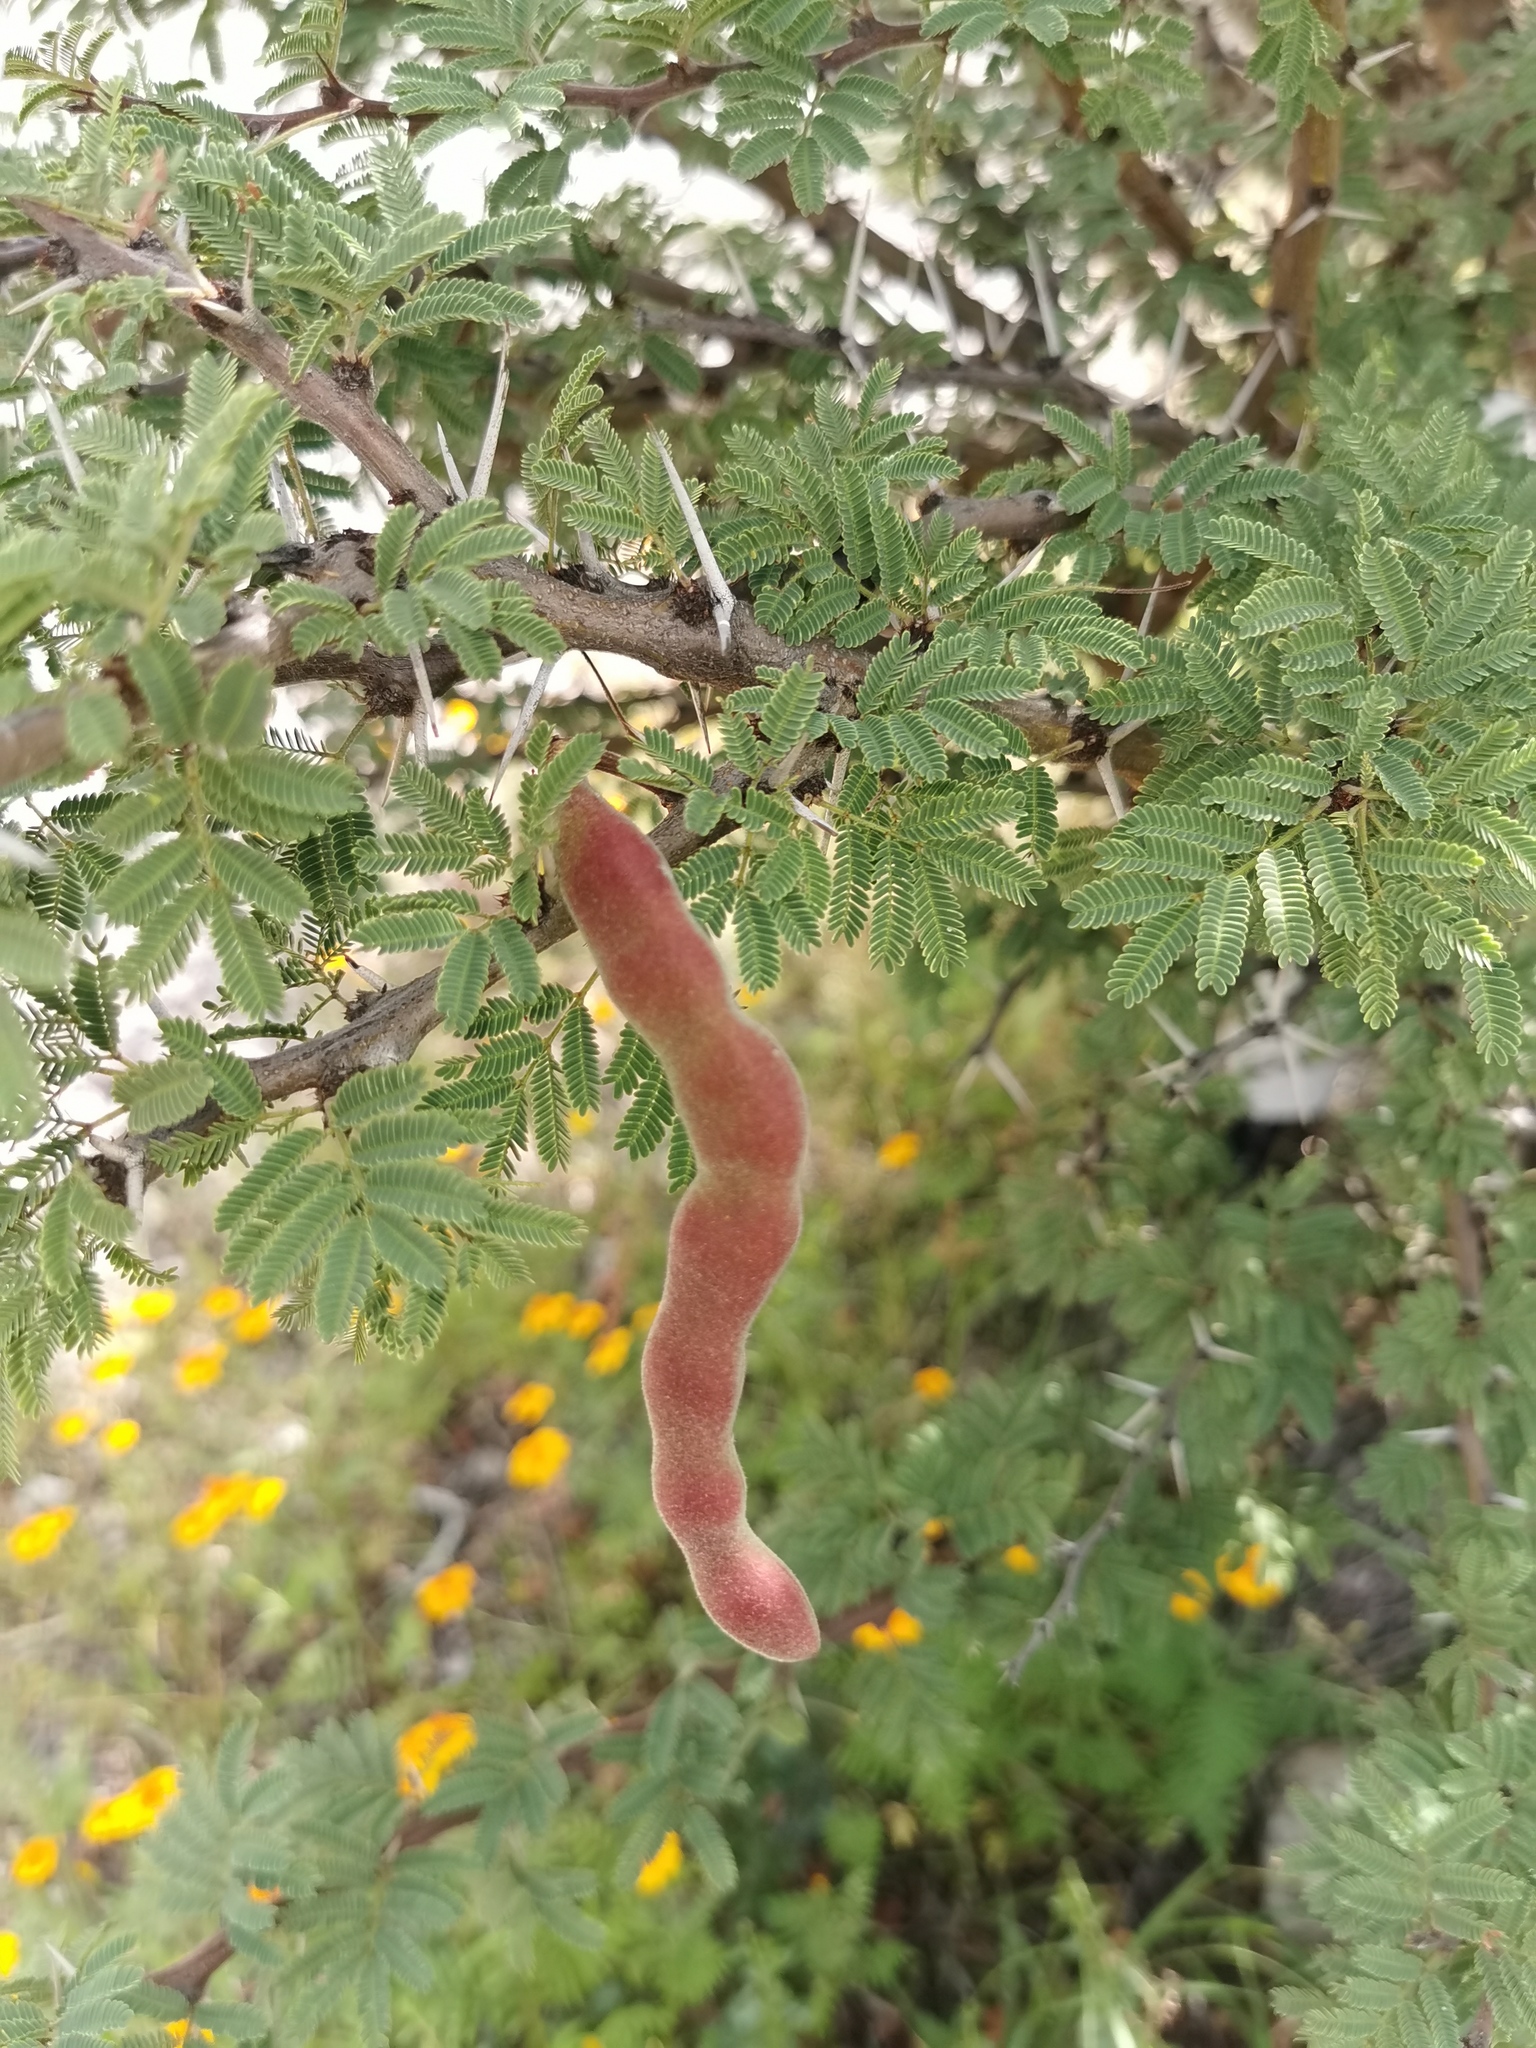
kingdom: Plantae
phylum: Tracheophyta
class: Magnoliopsida
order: Fabales
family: Fabaceae
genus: Vachellia
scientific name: Vachellia schaffneri
